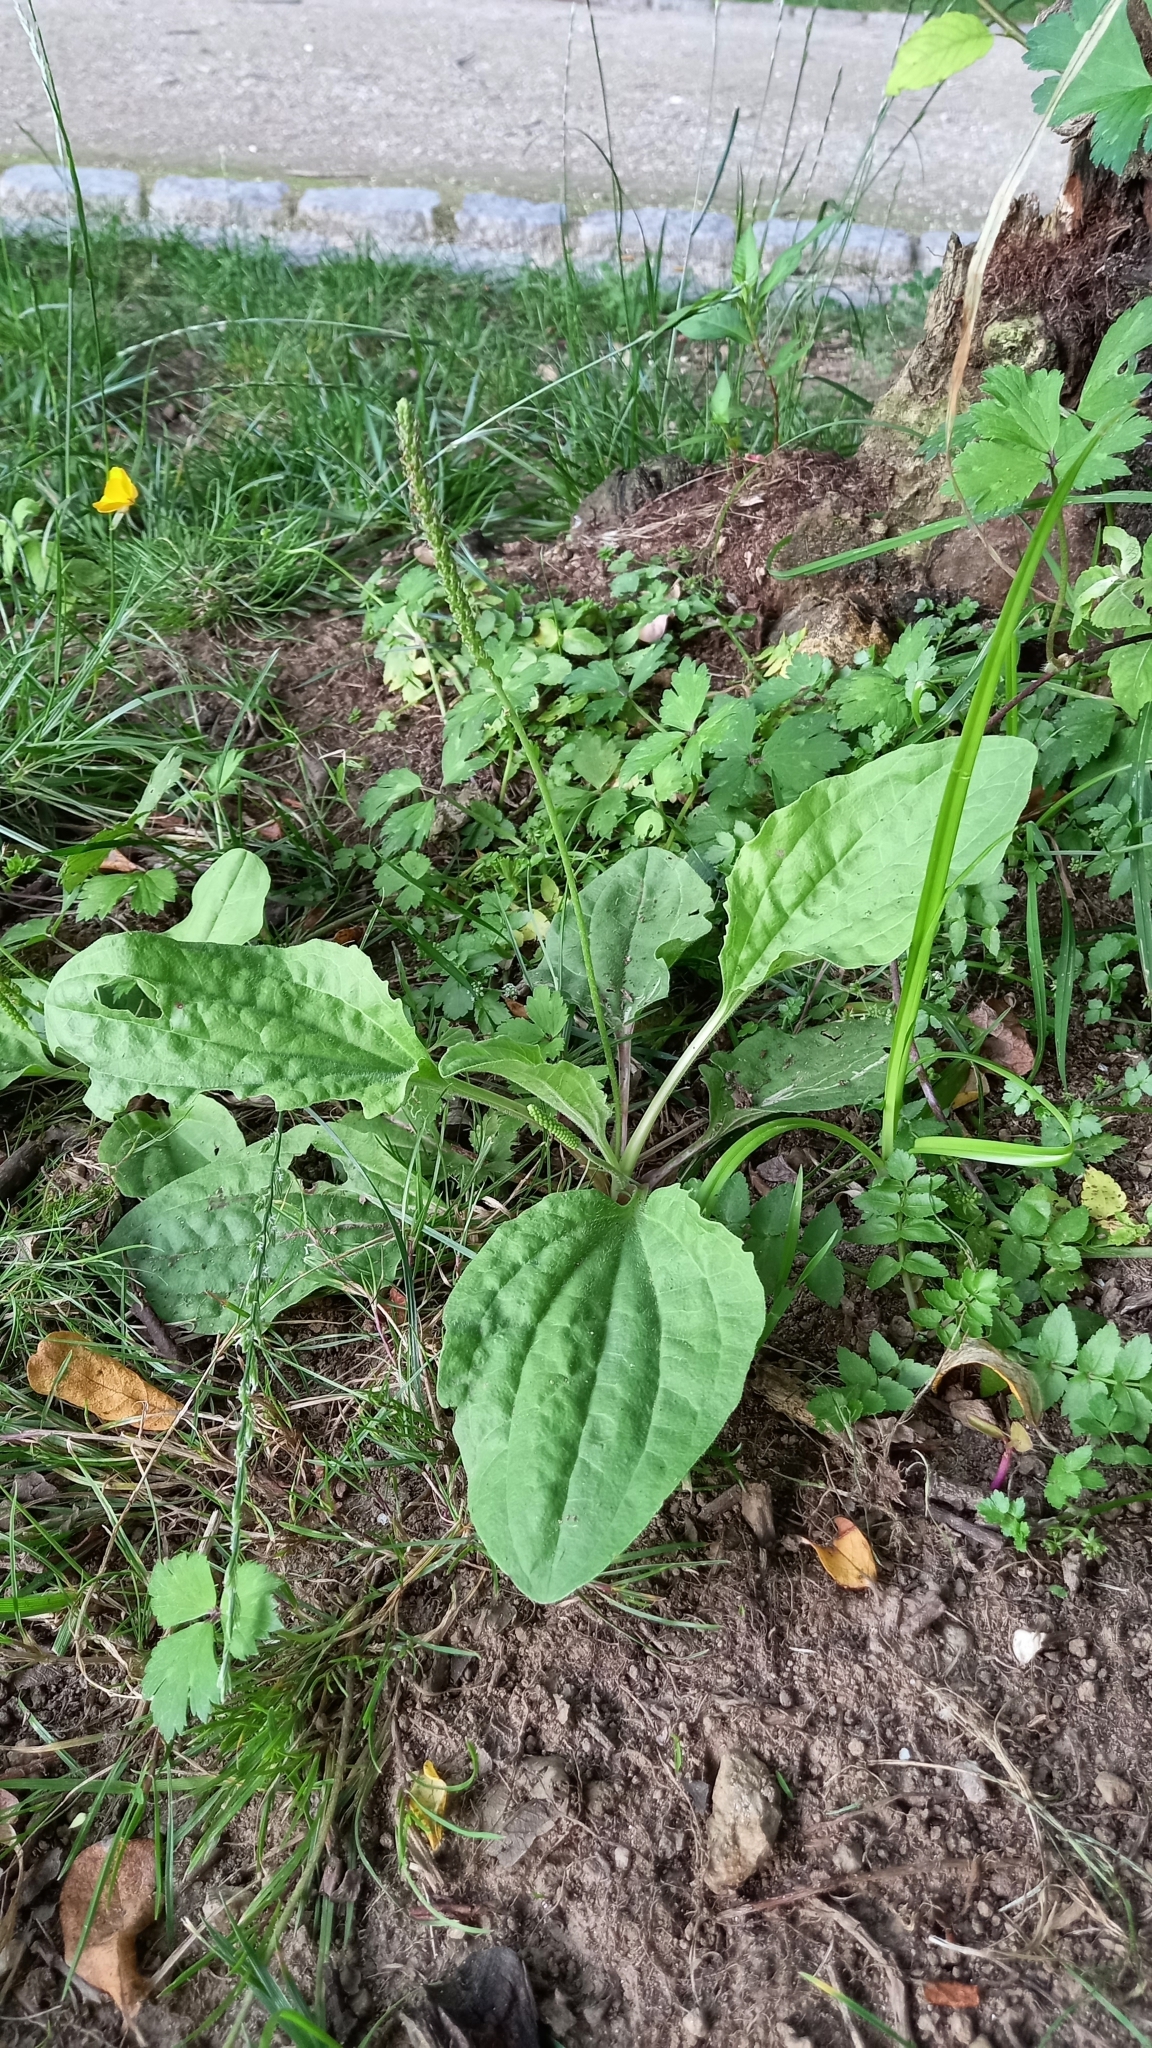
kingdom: Plantae
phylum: Tracheophyta
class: Magnoliopsida
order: Lamiales
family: Plantaginaceae
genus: Plantago
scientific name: Plantago major
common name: Common plantain
